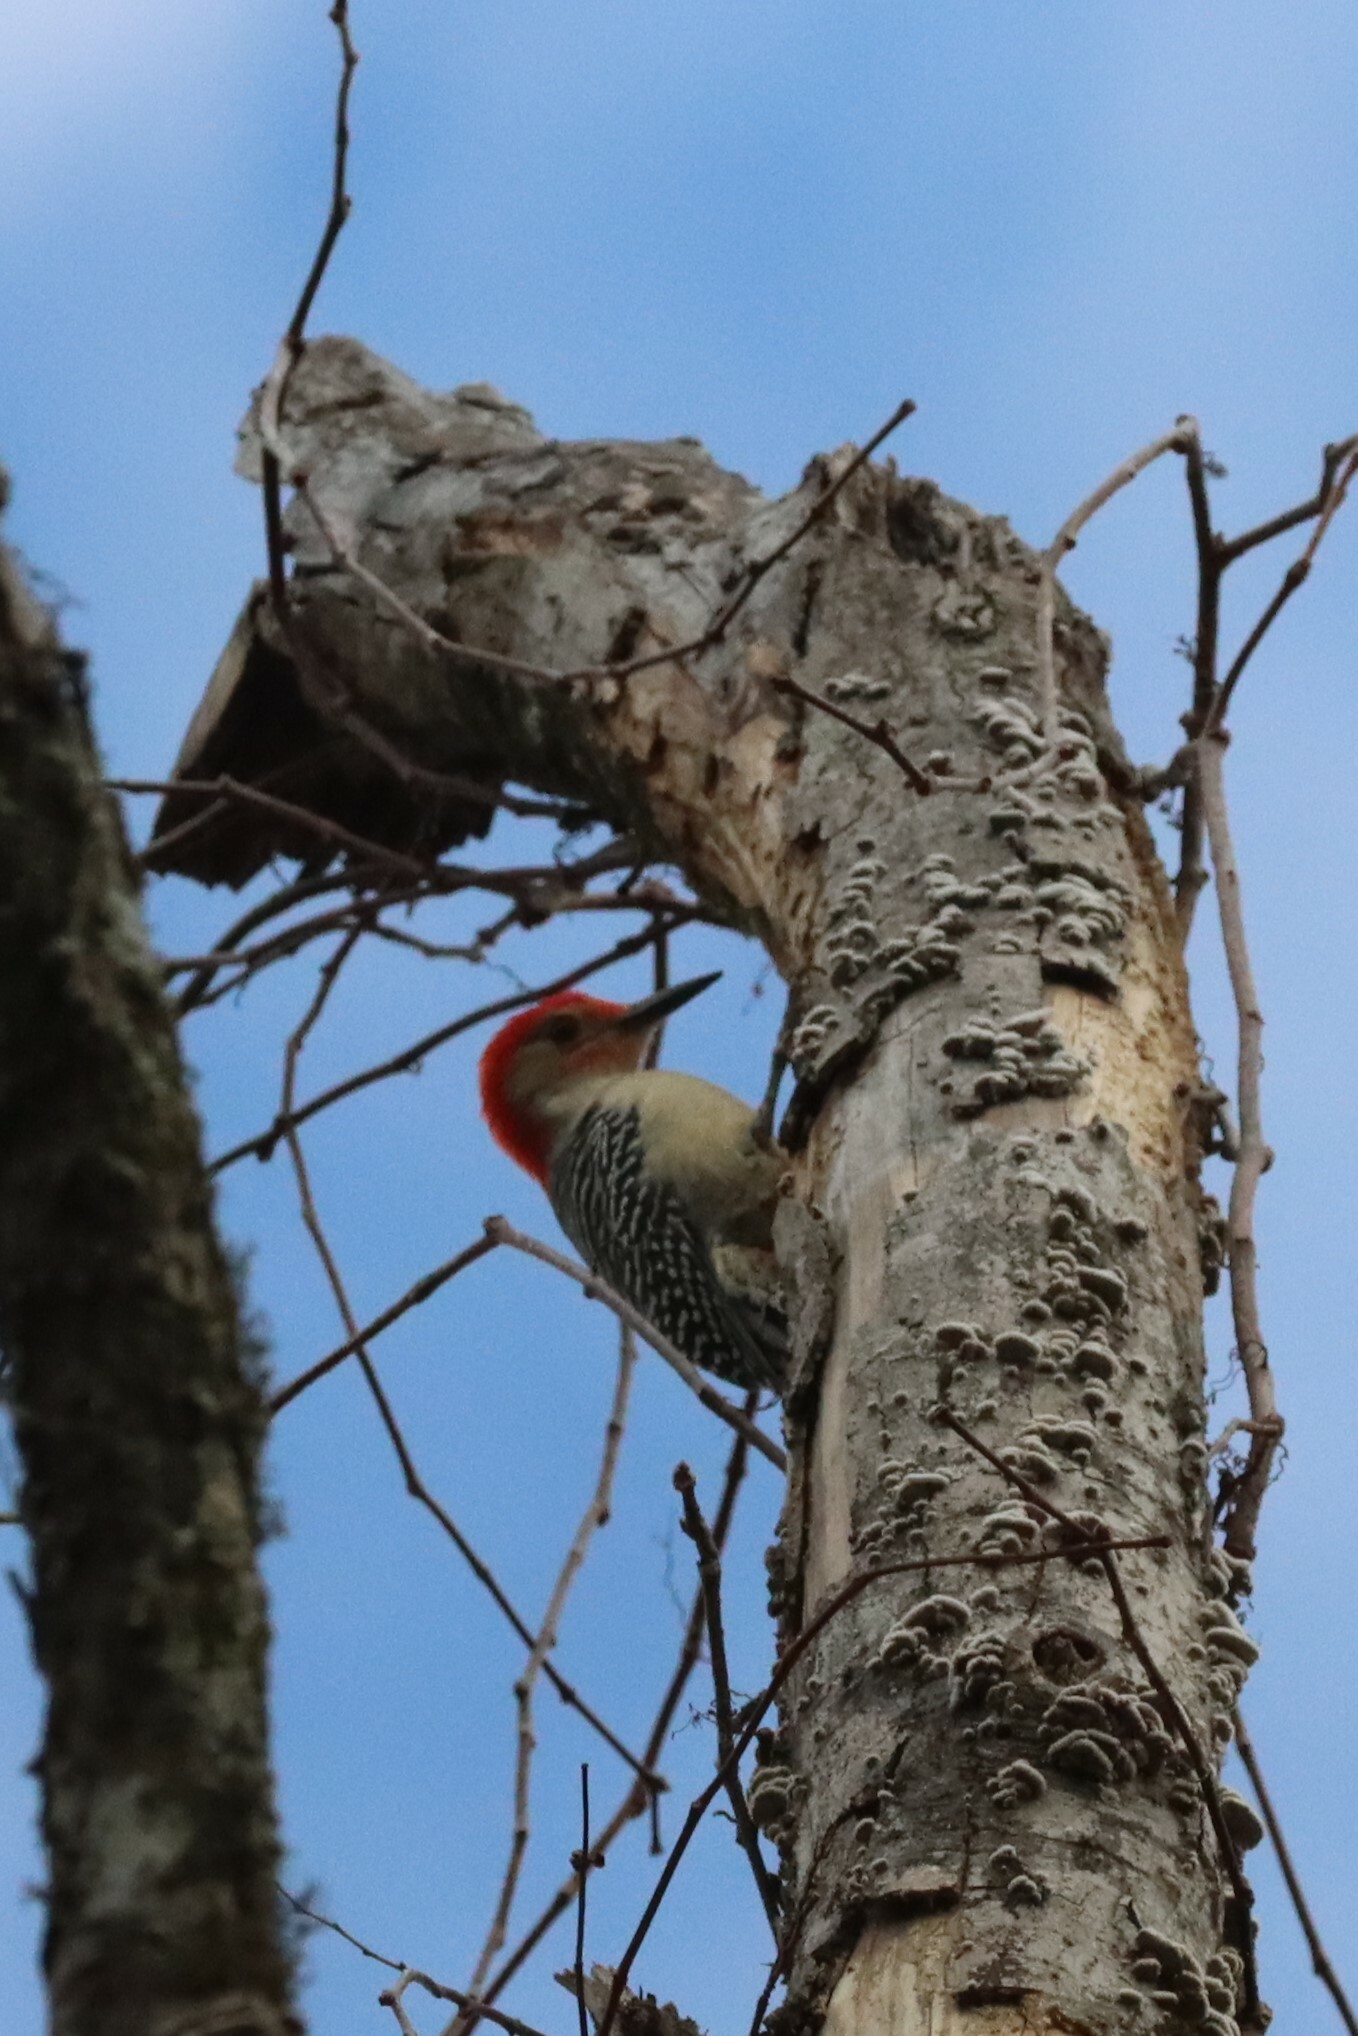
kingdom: Animalia
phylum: Chordata
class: Aves
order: Piciformes
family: Picidae
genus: Melanerpes
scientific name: Melanerpes carolinus
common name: Red-bellied woodpecker
